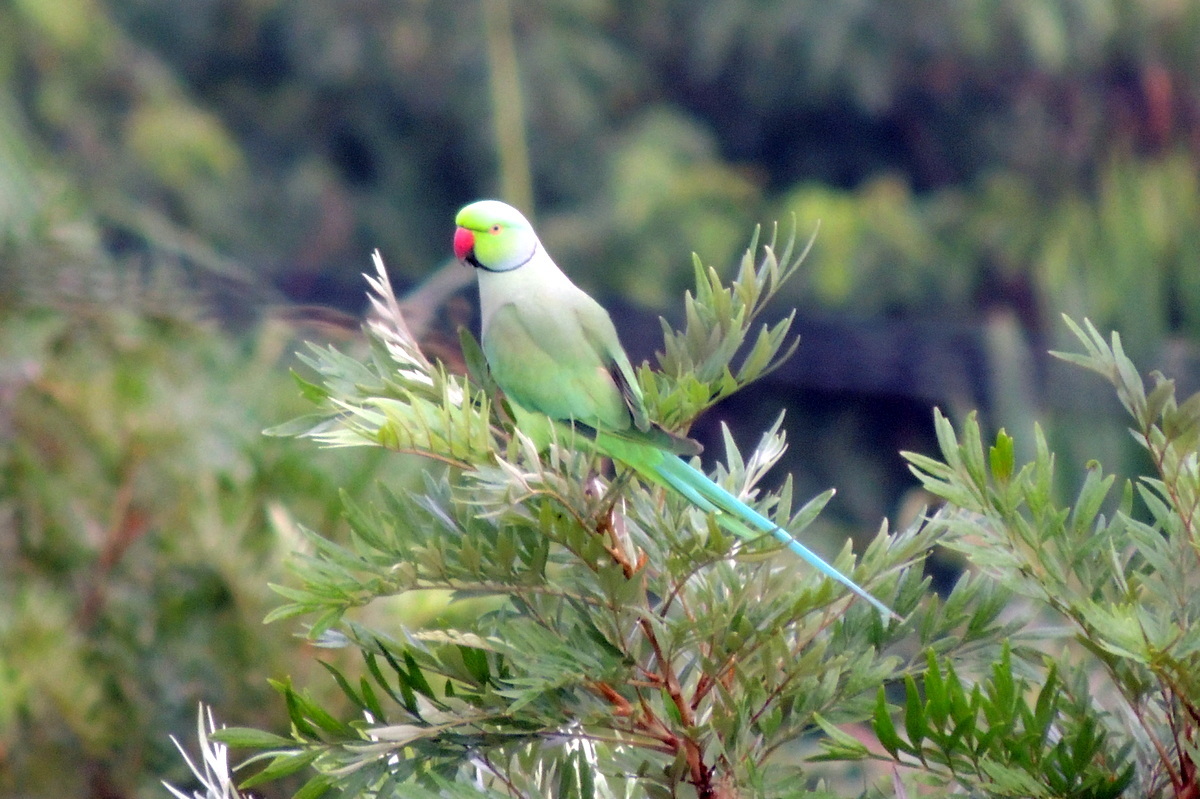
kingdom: Animalia
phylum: Chordata
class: Aves
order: Psittaciformes
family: Psittacidae
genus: Psittacula
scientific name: Psittacula krameri
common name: Rose-ringed parakeet
